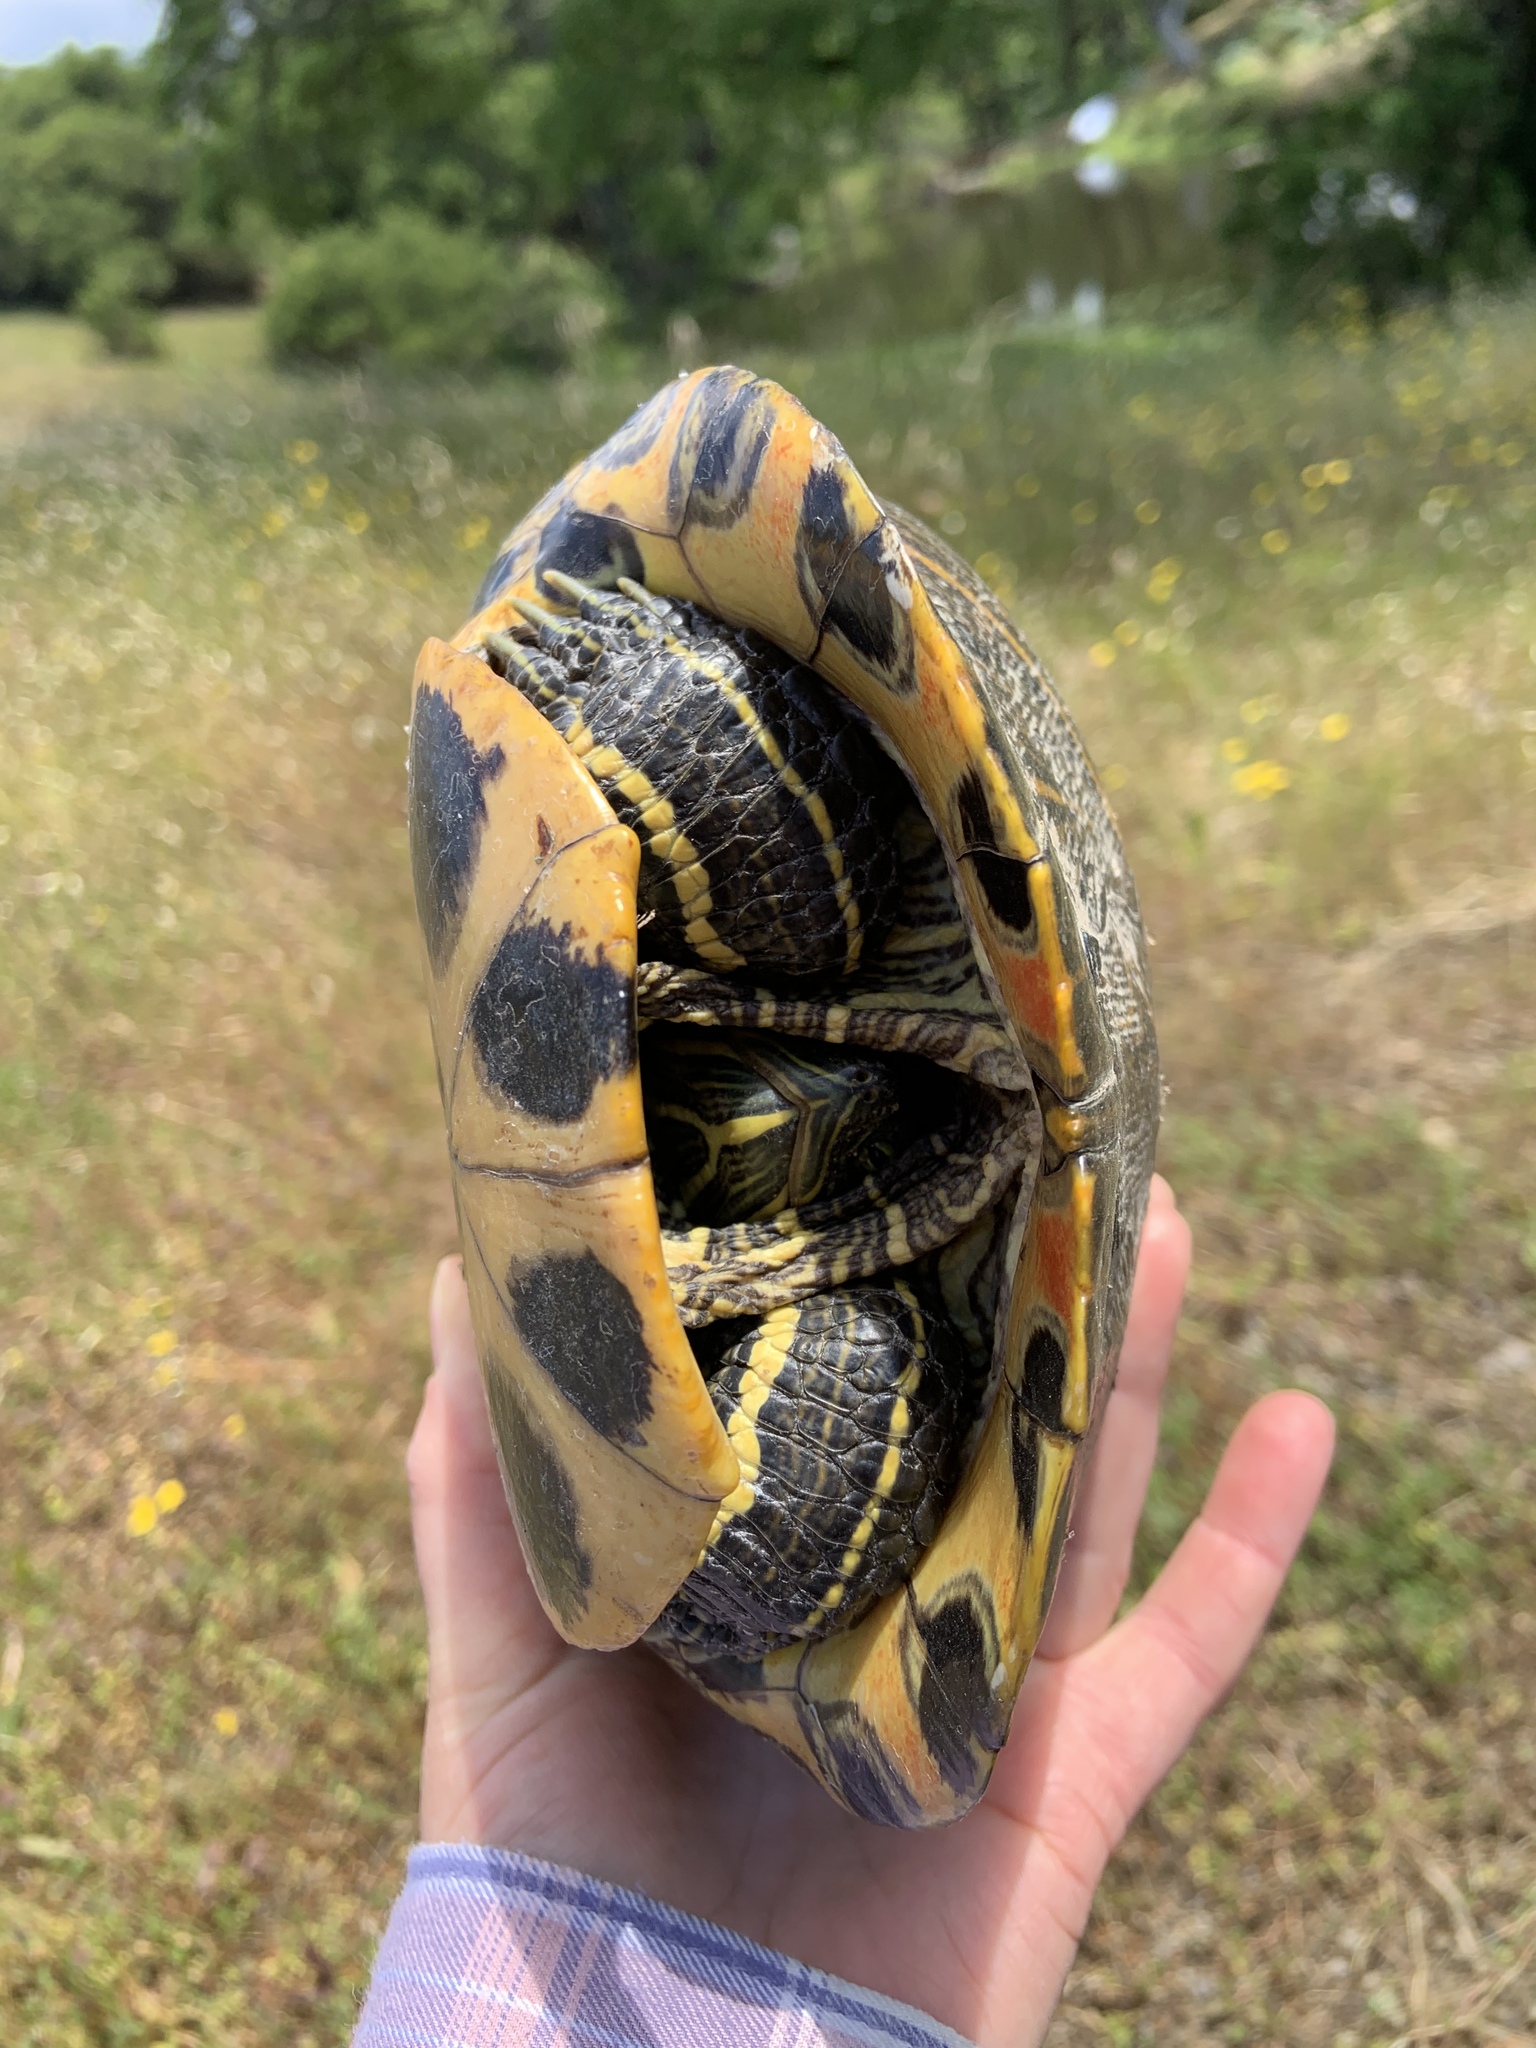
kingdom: Animalia
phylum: Chordata
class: Testudines
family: Emydidae
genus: Trachemys
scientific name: Trachemys scripta
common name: Slider
